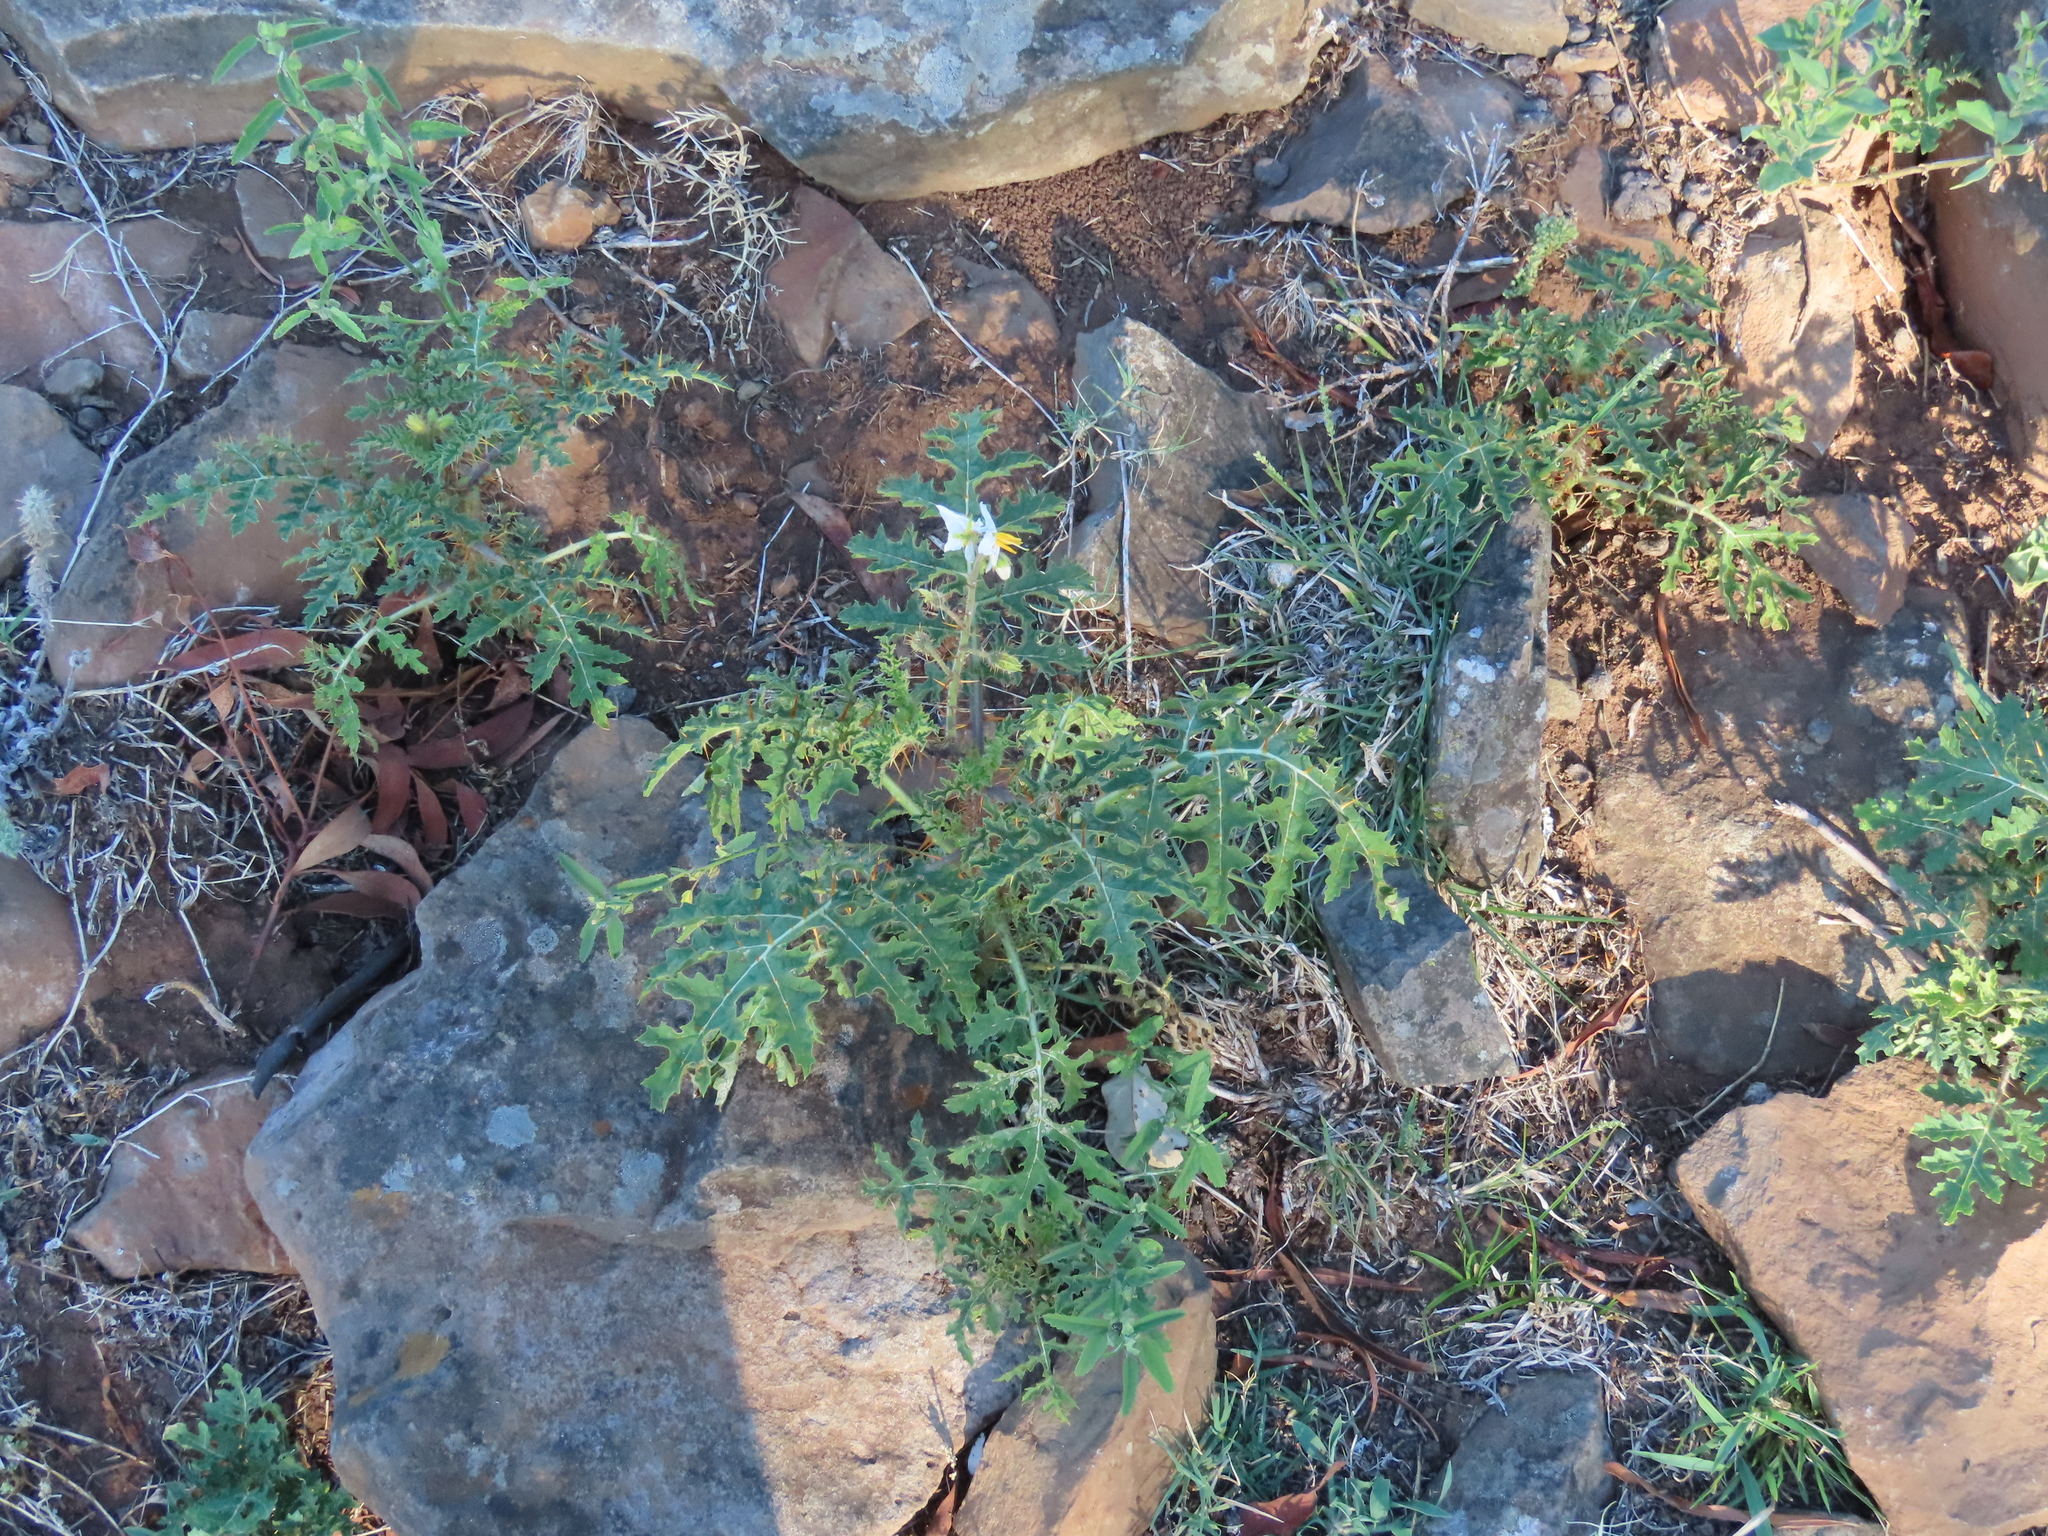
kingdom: Plantae
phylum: Tracheophyta
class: Magnoliopsida
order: Solanales
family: Solanaceae
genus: Solanum
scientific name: Solanum sisymbriifolium
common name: Red buffalo-bur
